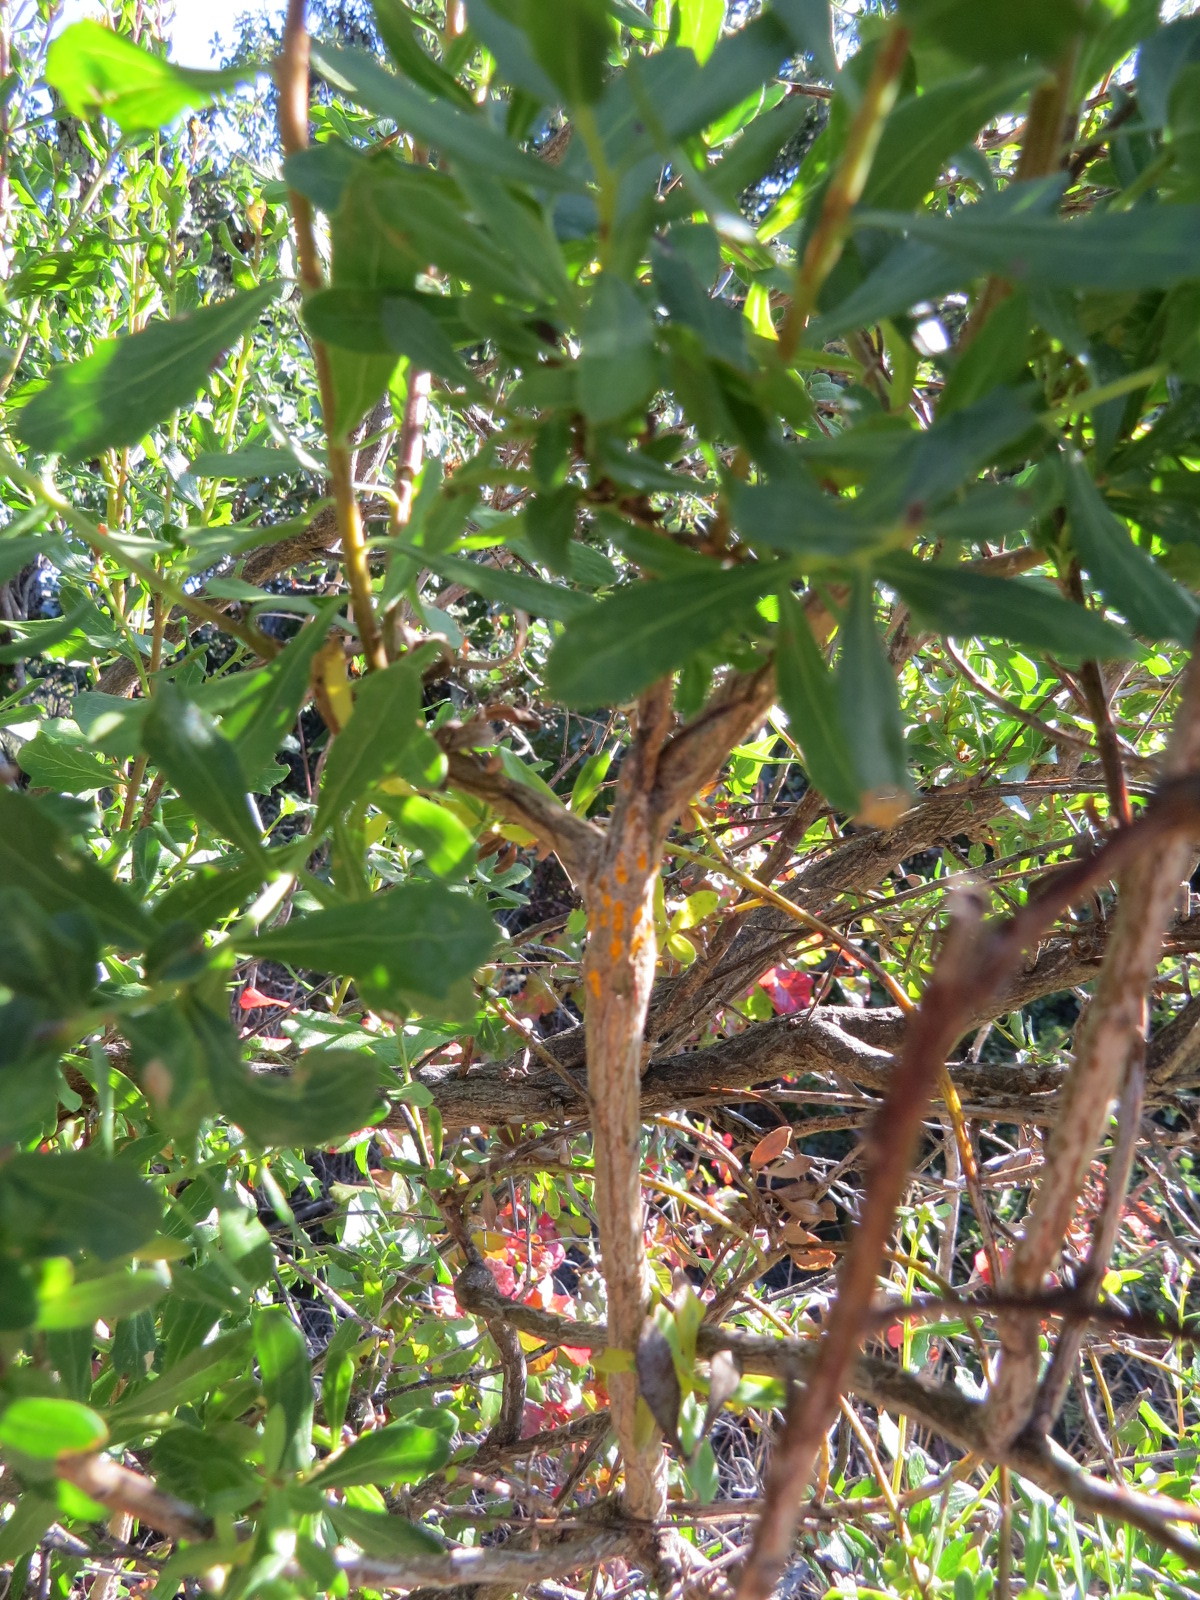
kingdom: Fungi
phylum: Basidiomycota
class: Pucciniomycetes
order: Pucciniales
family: Pucciniaceae
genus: Eriosporangium
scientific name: Eriosporangium evadens
